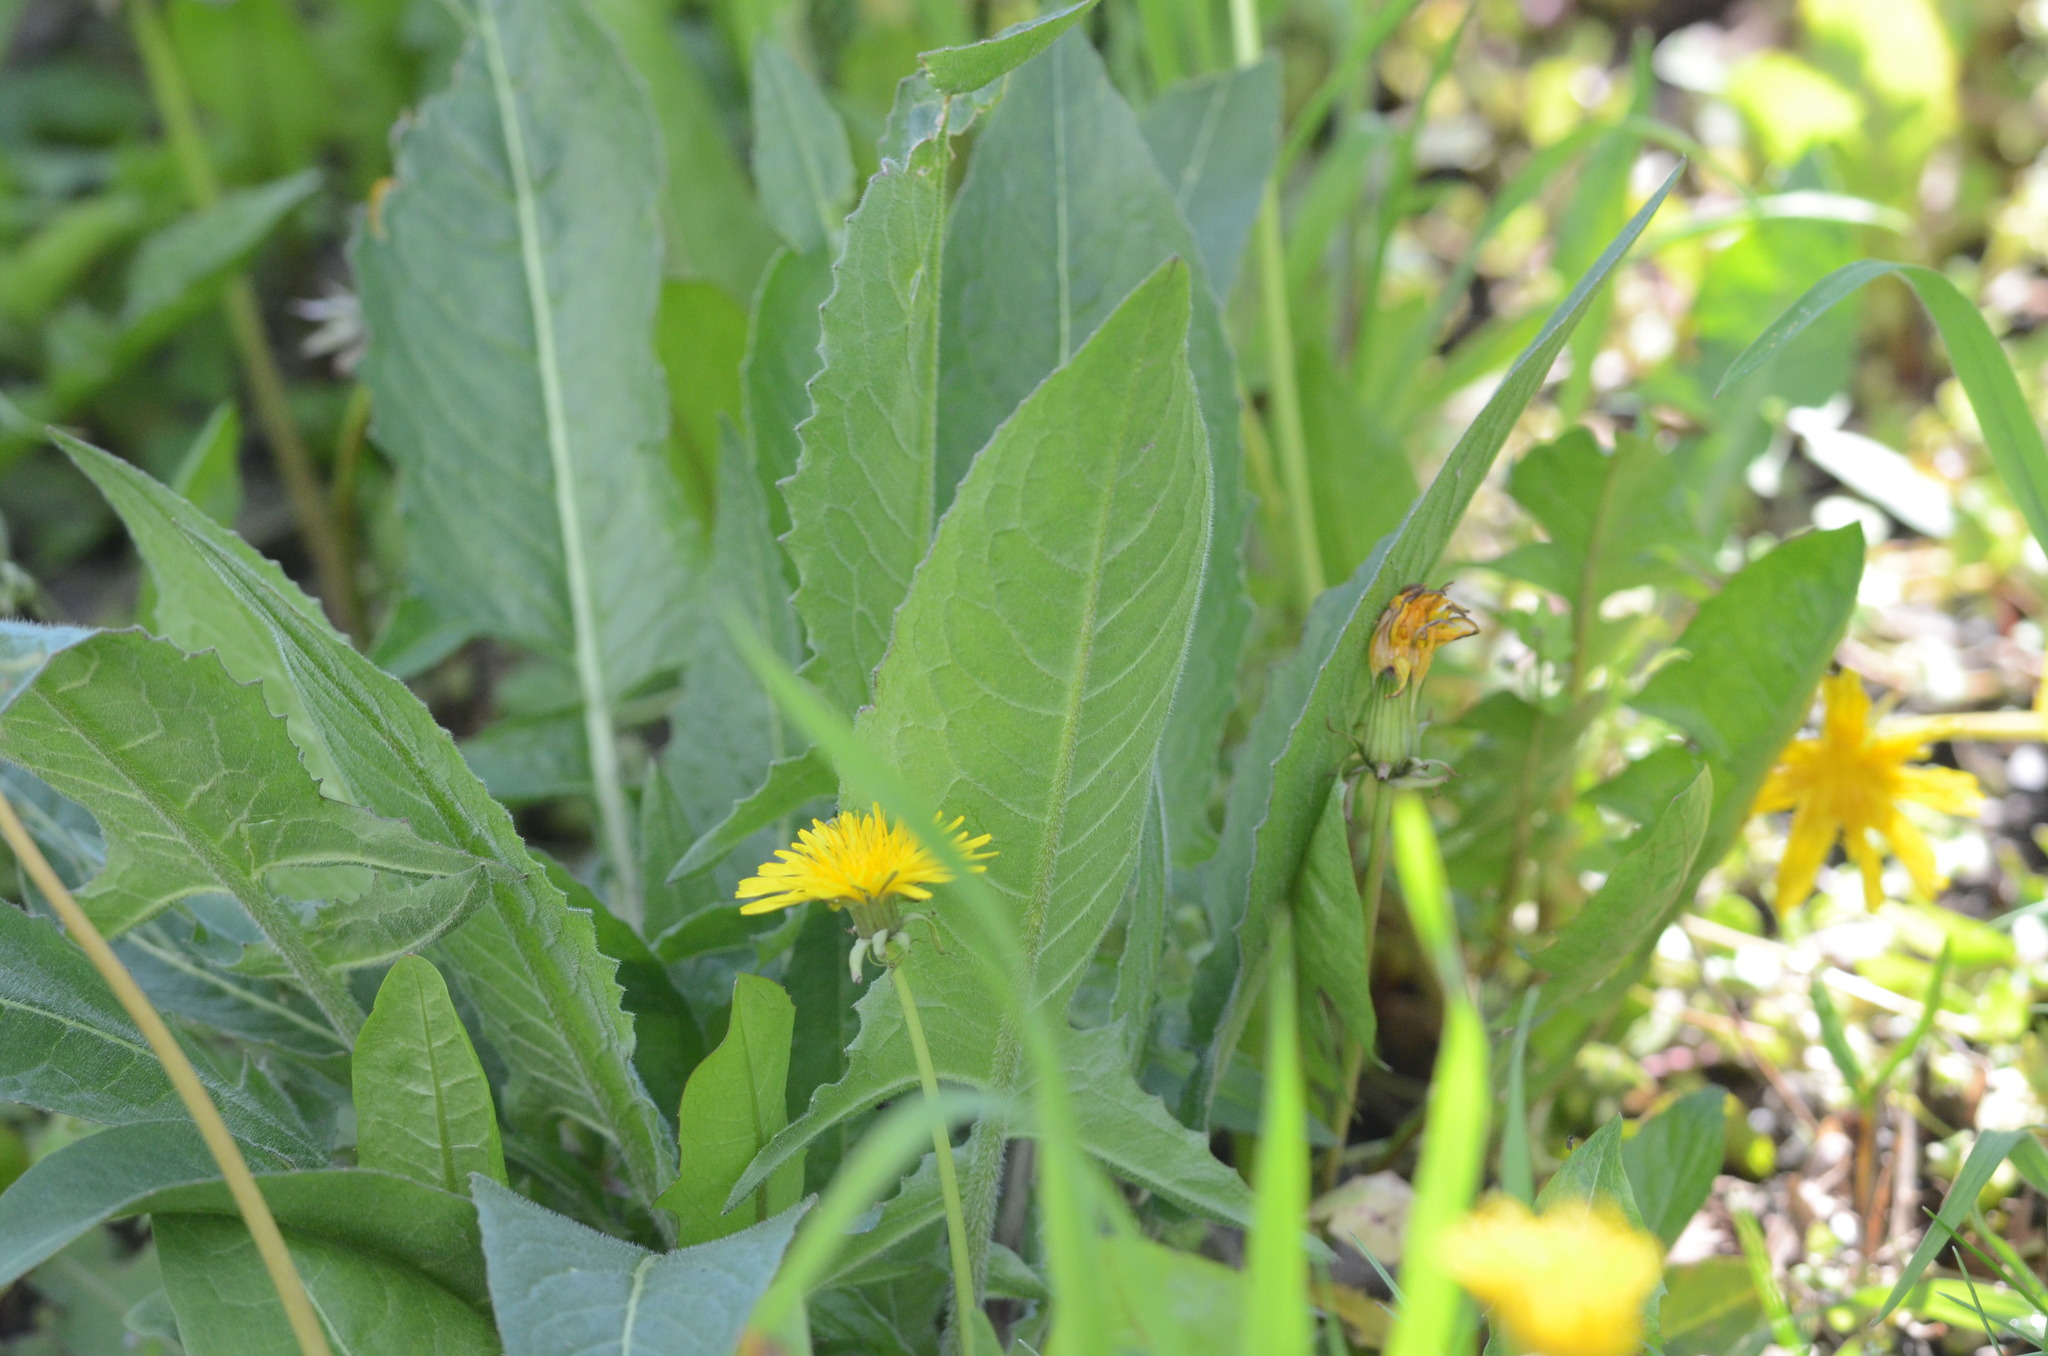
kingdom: Plantae
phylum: Tracheophyta
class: Magnoliopsida
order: Brassicales
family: Brassicaceae
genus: Bunias
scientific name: Bunias orientalis
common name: Warty-cabbage
